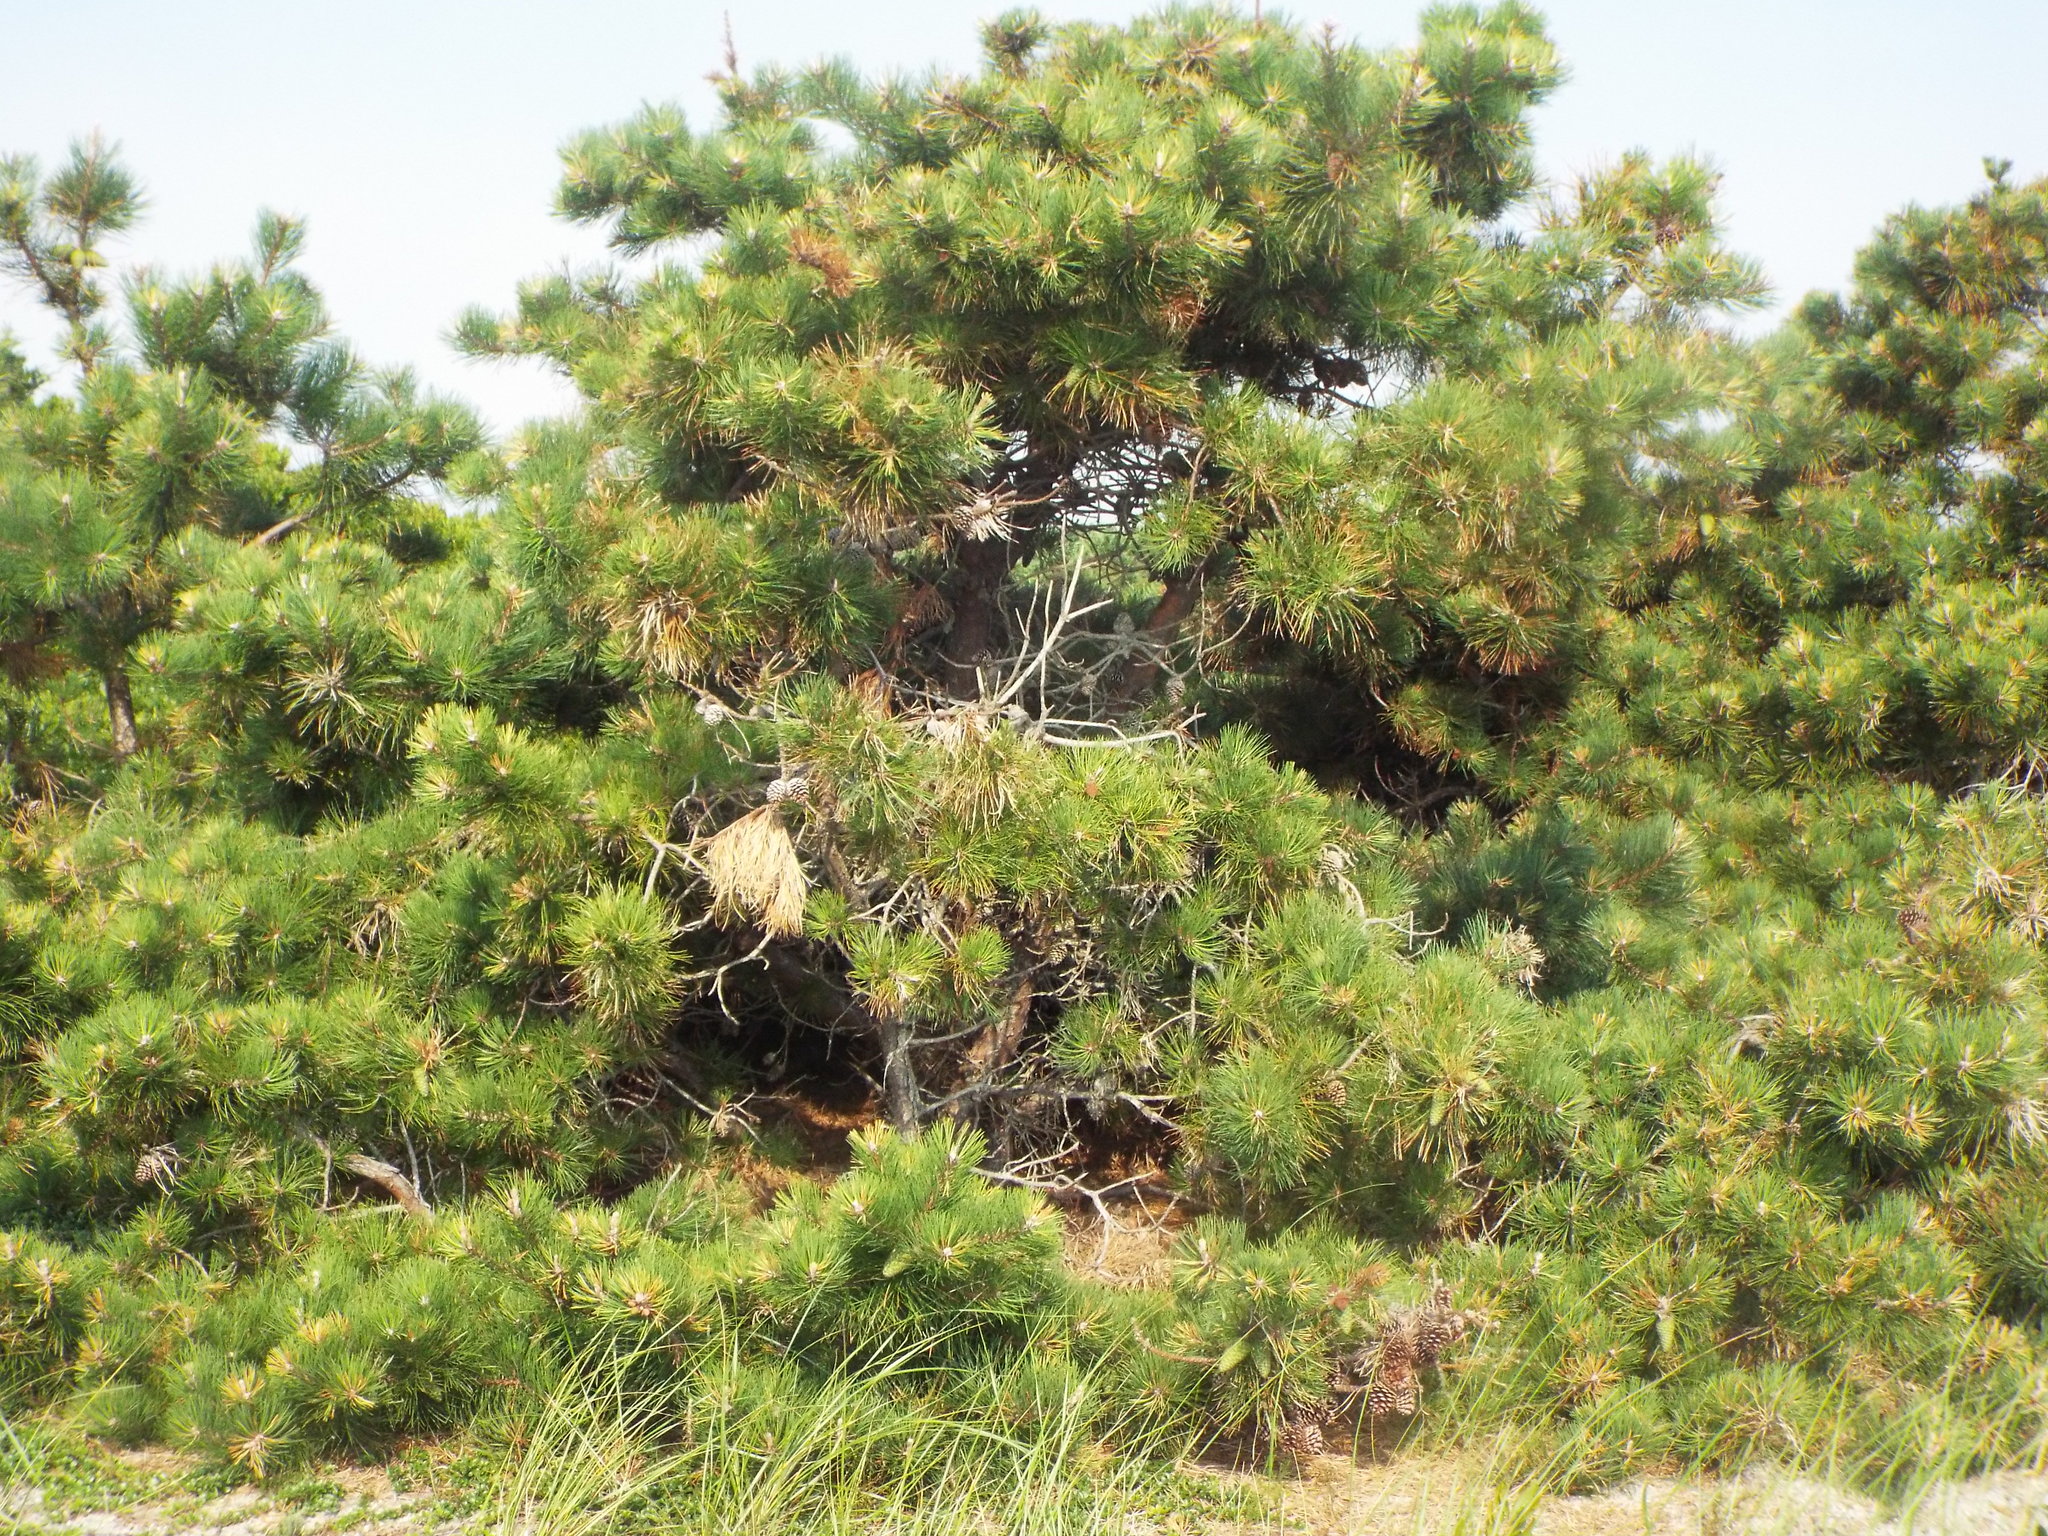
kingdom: Plantae
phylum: Tracheophyta
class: Pinopsida
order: Pinales
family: Pinaceae
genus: Pinus
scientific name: Pinus rigida
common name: Pitch pine
